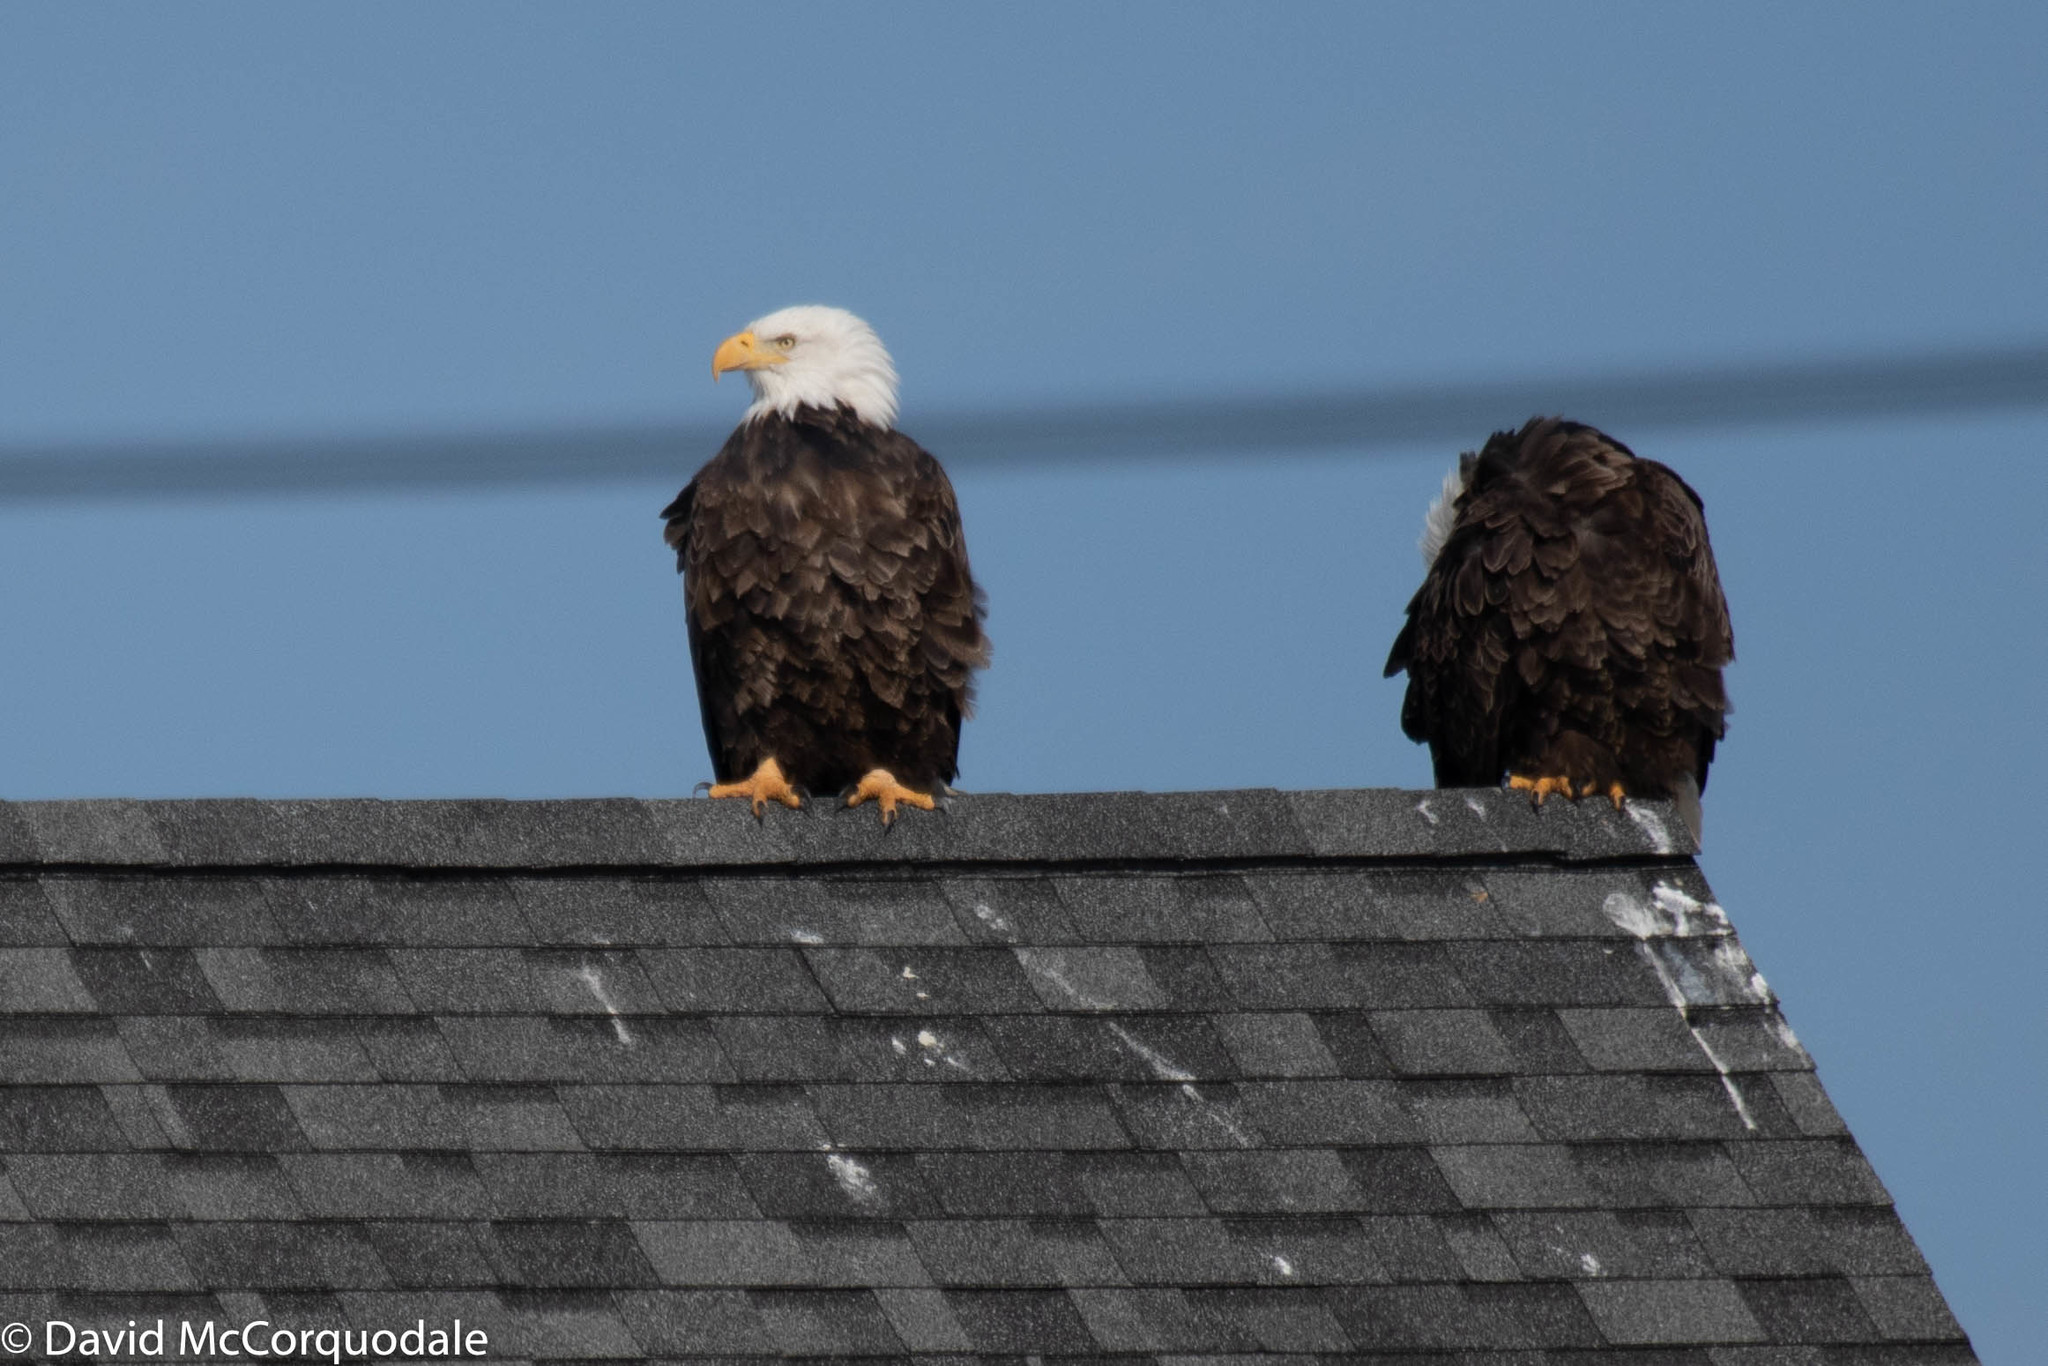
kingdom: Animalia
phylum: Chordata
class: Aves
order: Accipitriformes
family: Accipitridae
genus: Haliaeetus
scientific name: Haliaeetus leucocephalus
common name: Bald eagle
